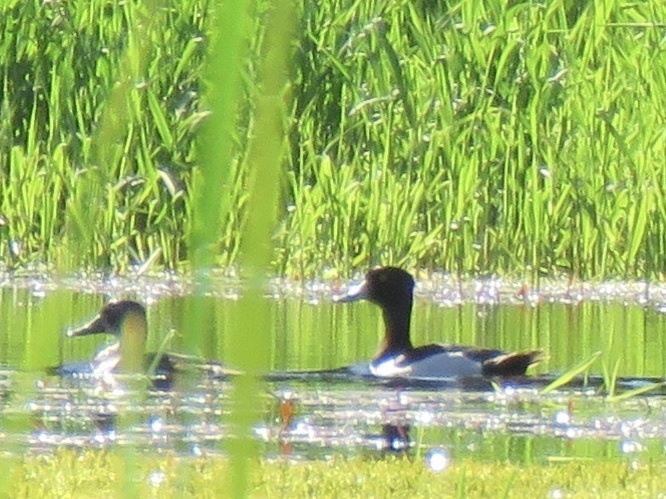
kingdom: Animalia
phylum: Chordata
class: Aves
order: Anseriformes
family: Anatidae
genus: Aythya
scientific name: Aythya collaris
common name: Ring-necked duck
